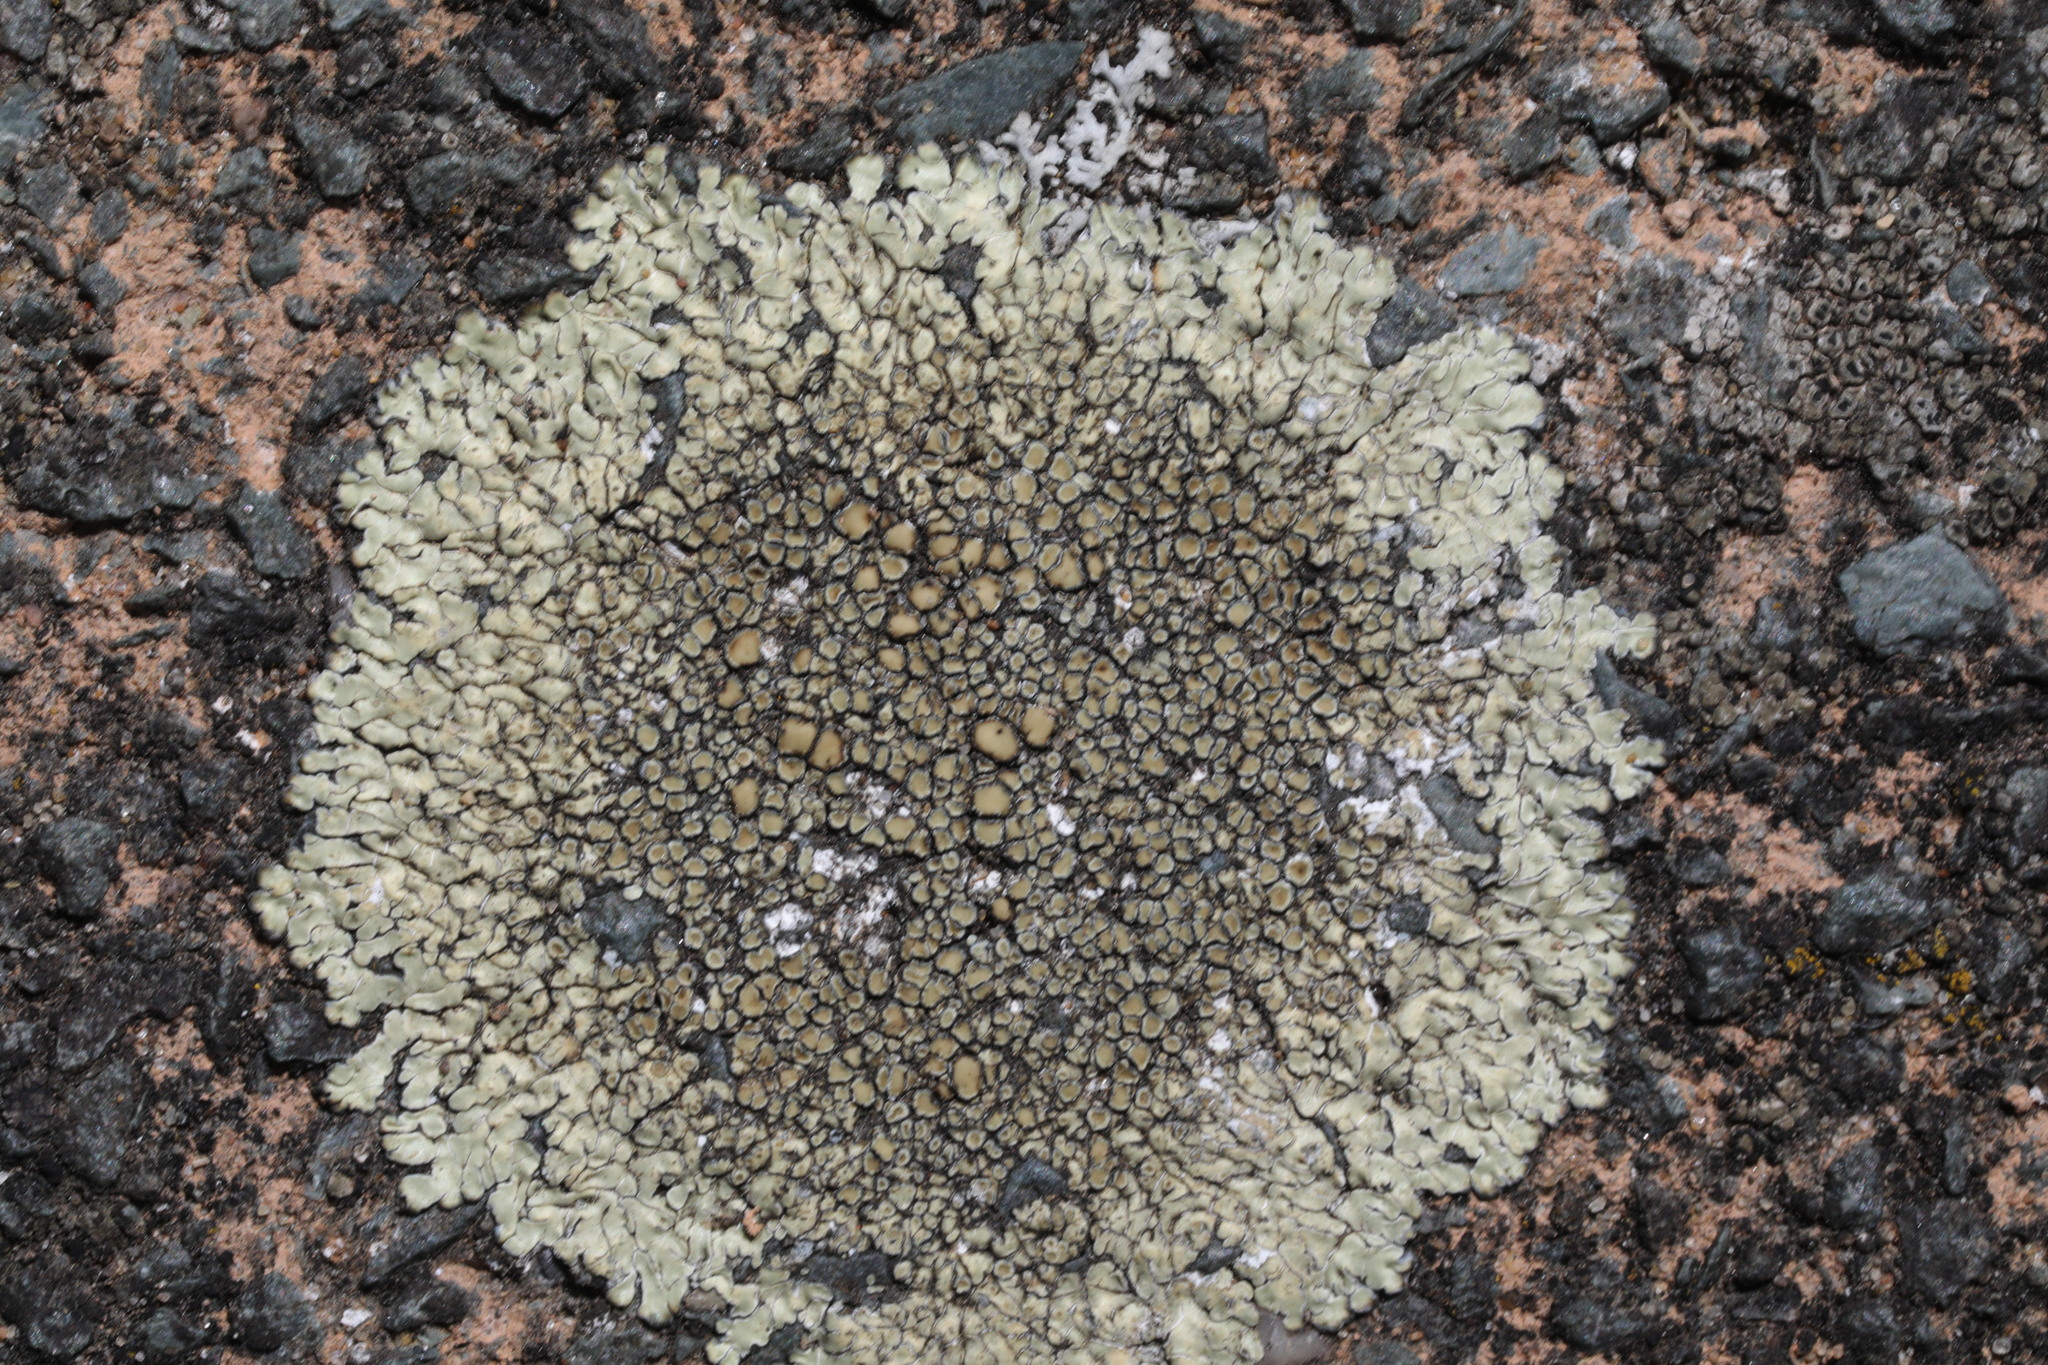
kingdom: Fungi
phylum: Ascomycota
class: Lecanoromycetes
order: Lecanorales
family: Lecanoraceae
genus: Protoparmeliopsis
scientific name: Protoparmeliopsis muralis
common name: Stonewall rim lichen
